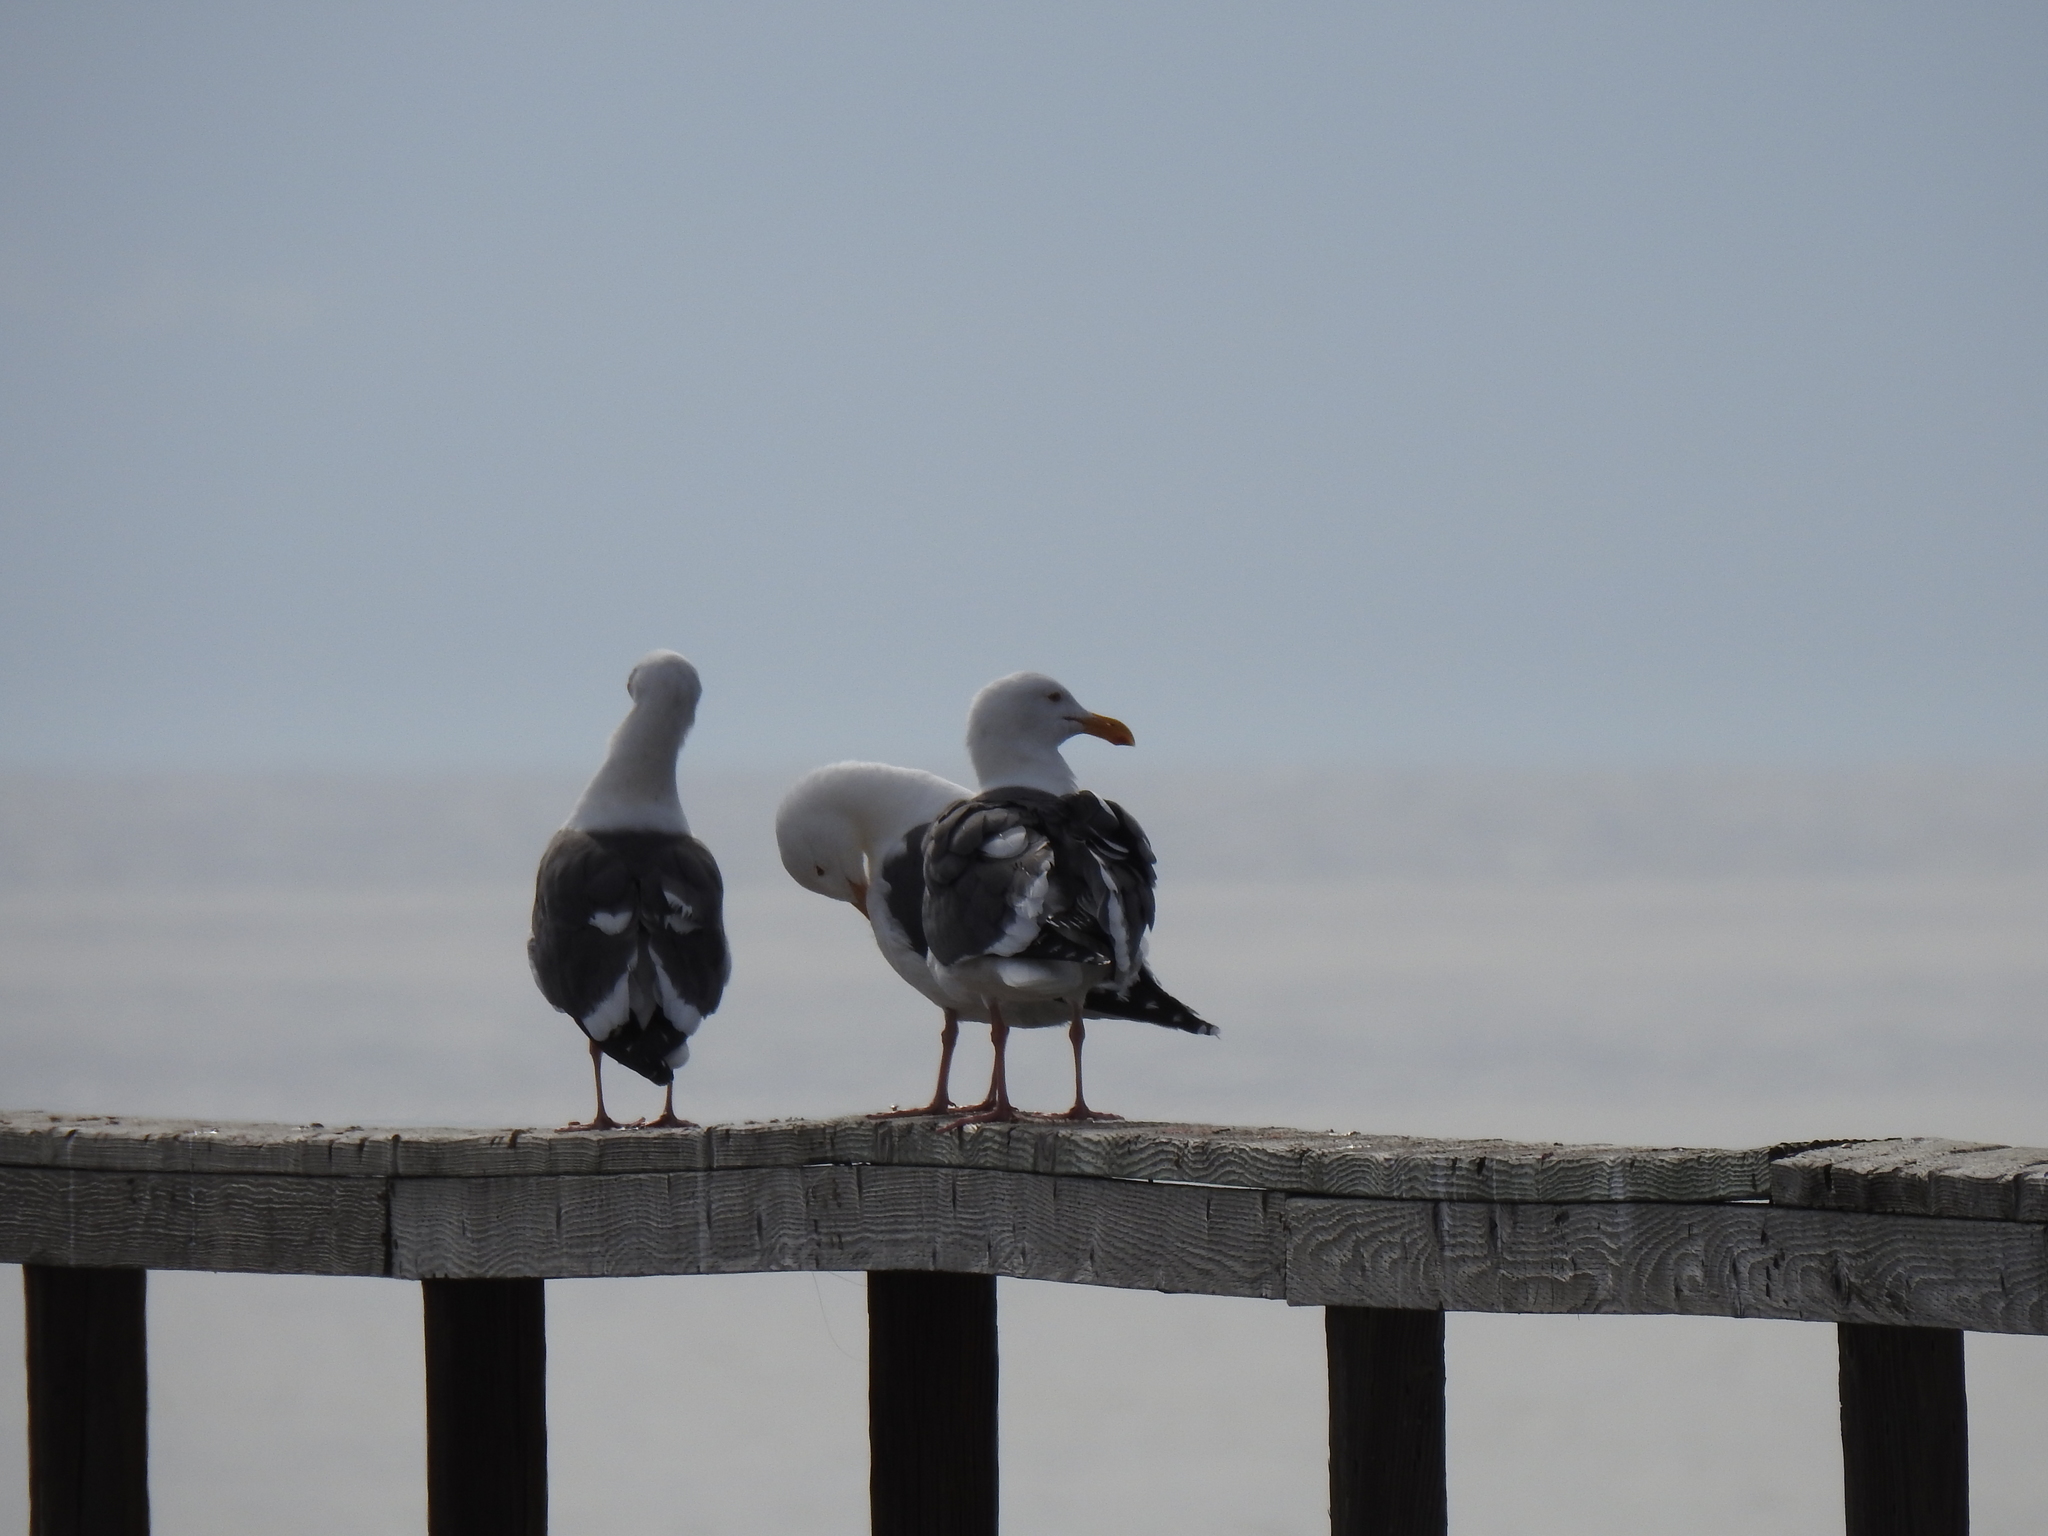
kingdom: Animalia
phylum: Chordata
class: Aves
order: Charadriiformes
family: Laridae
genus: Larus
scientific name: Larus occidentalis
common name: Western gull
